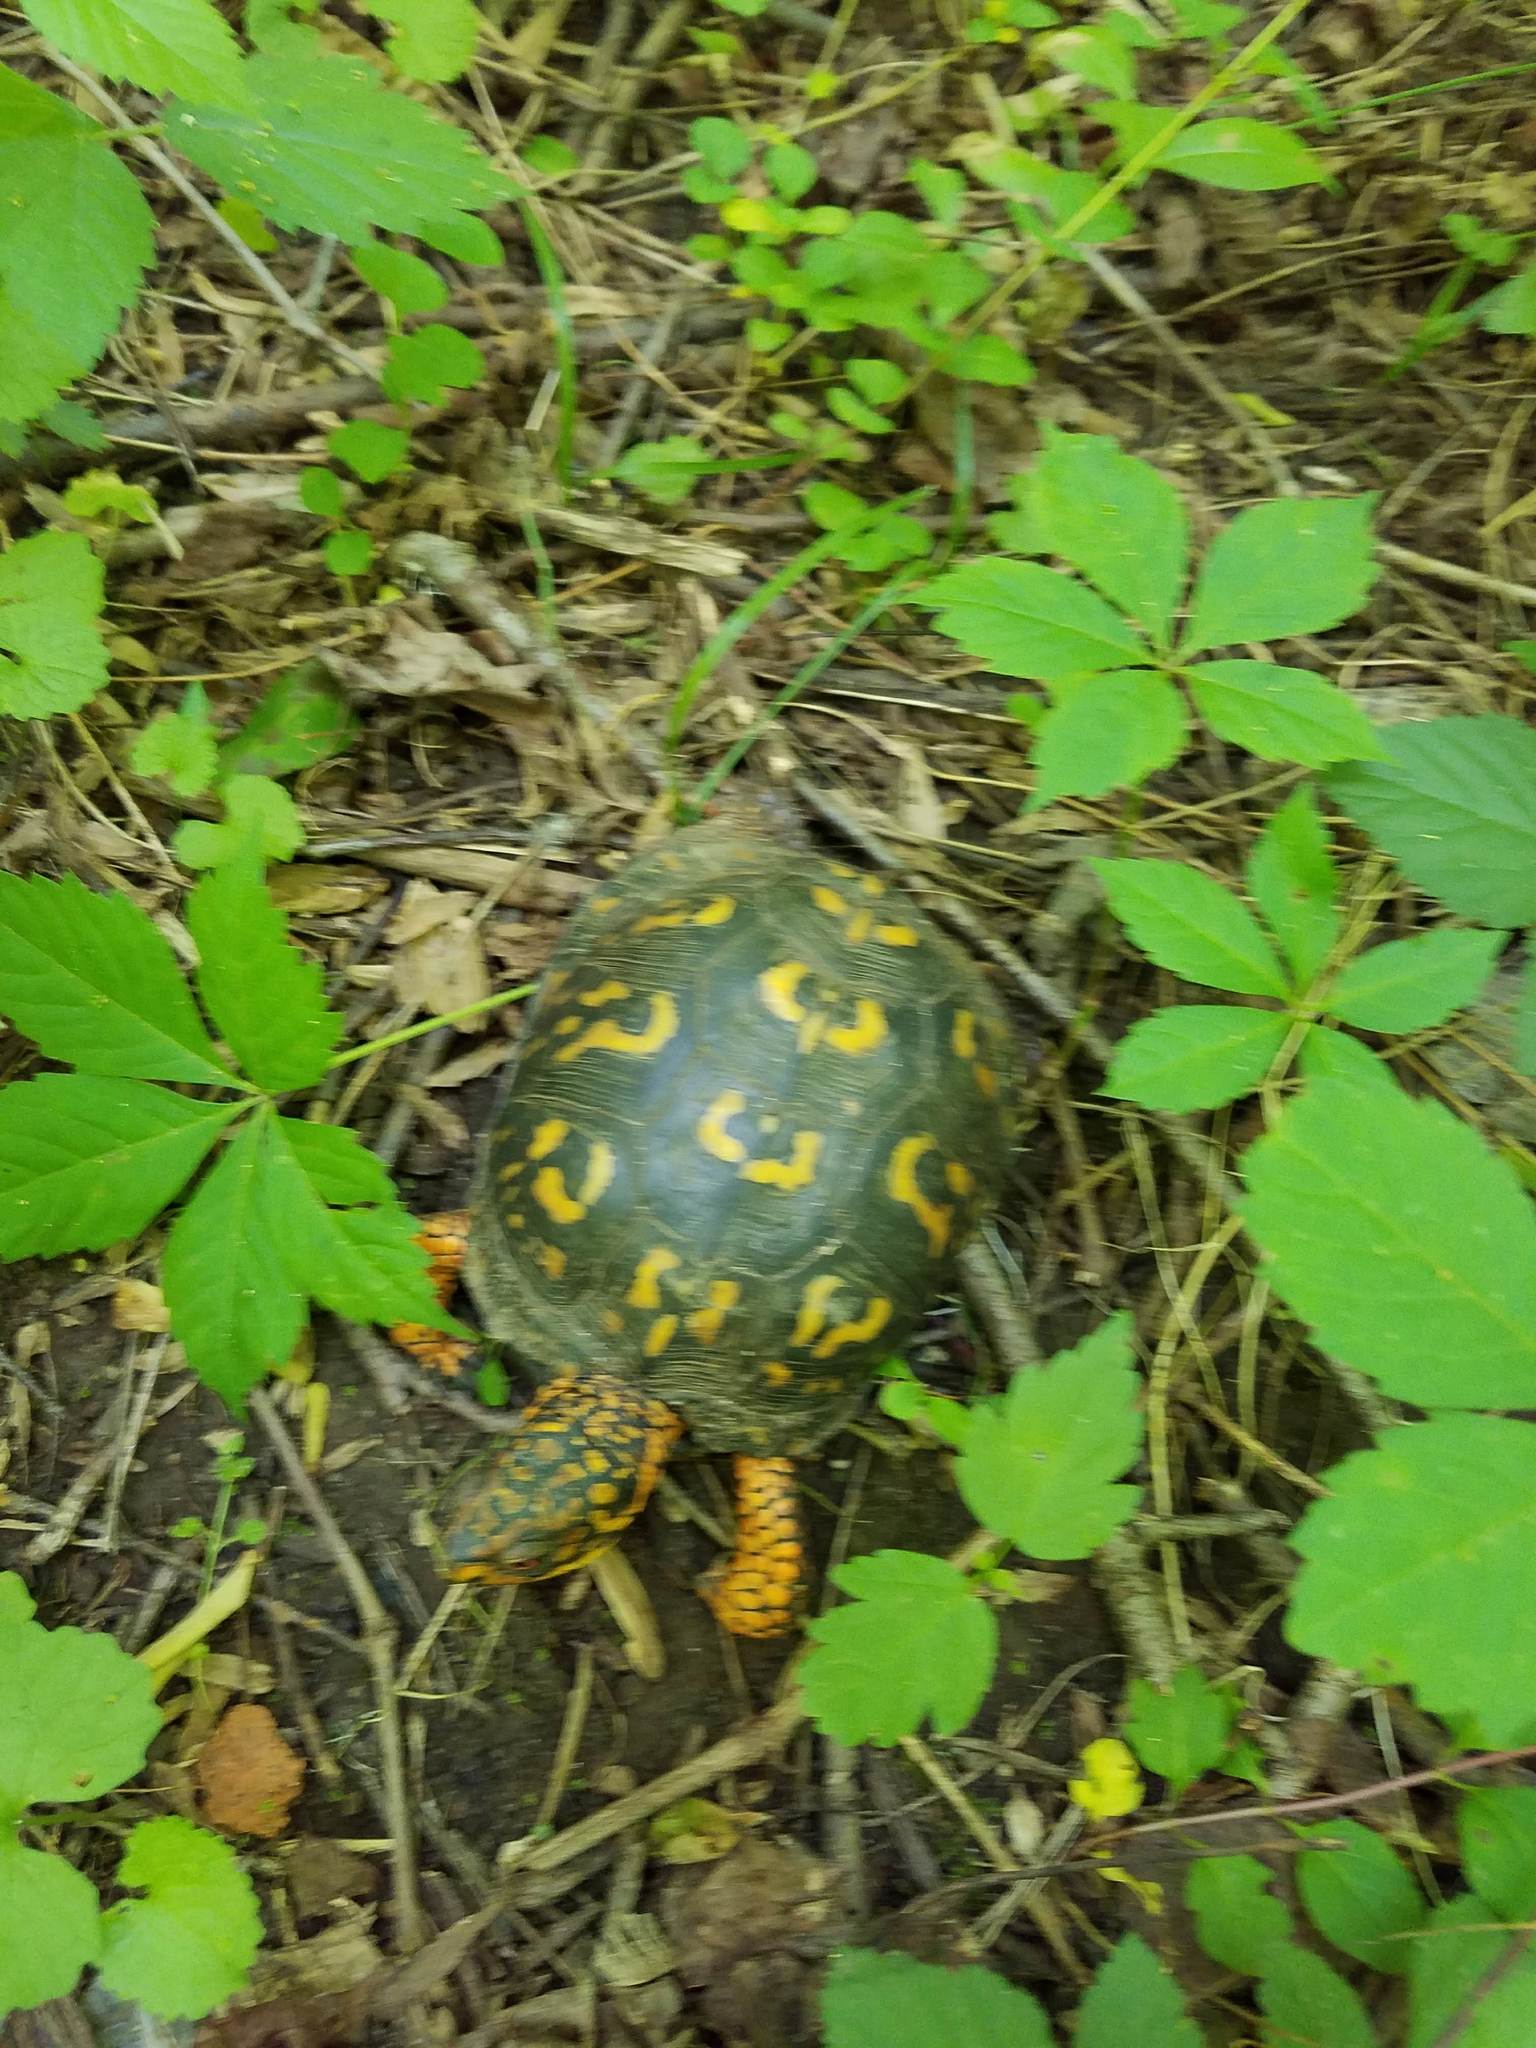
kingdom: Animalia
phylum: Chordata
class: Testudines
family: Emydidae
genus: Terrapene
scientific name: Terrapene carolina
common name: Common box turtle
